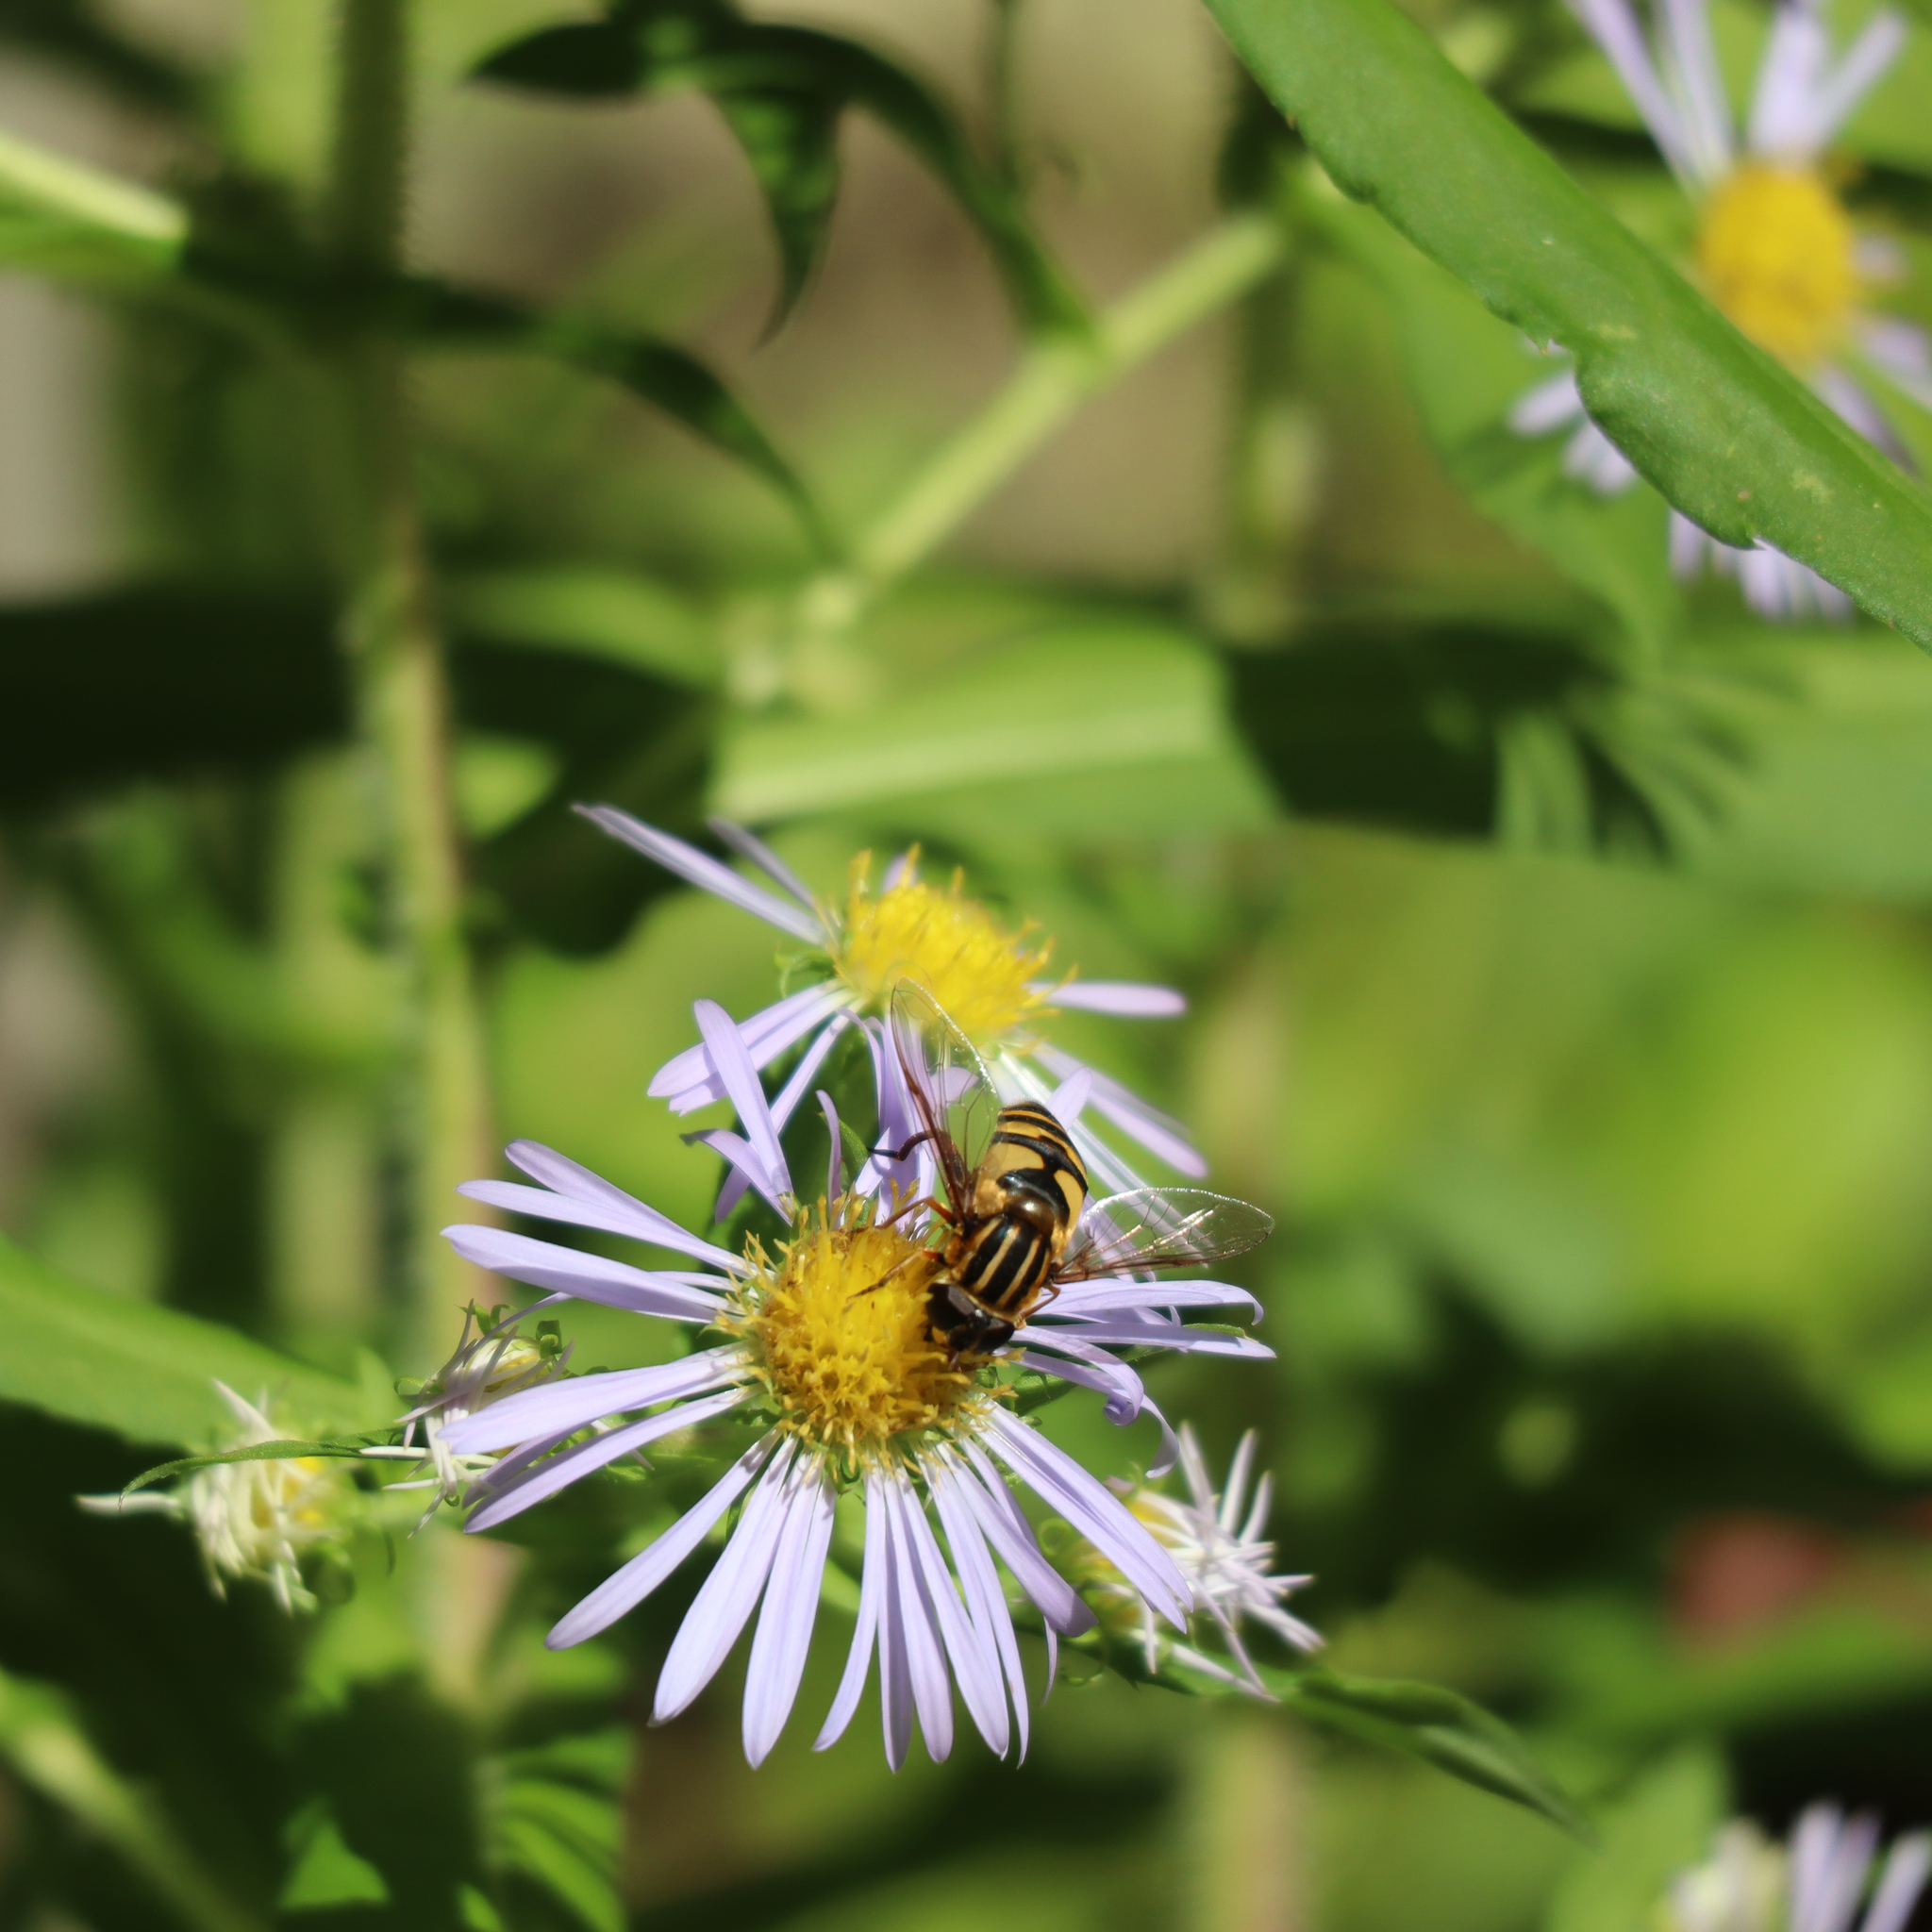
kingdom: Animalia
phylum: Arthropoda
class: Insecta
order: Diptera
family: Syrphidae
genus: Helophilus
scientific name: Helophilus fasciatus
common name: Narrow-headed marsh fly
